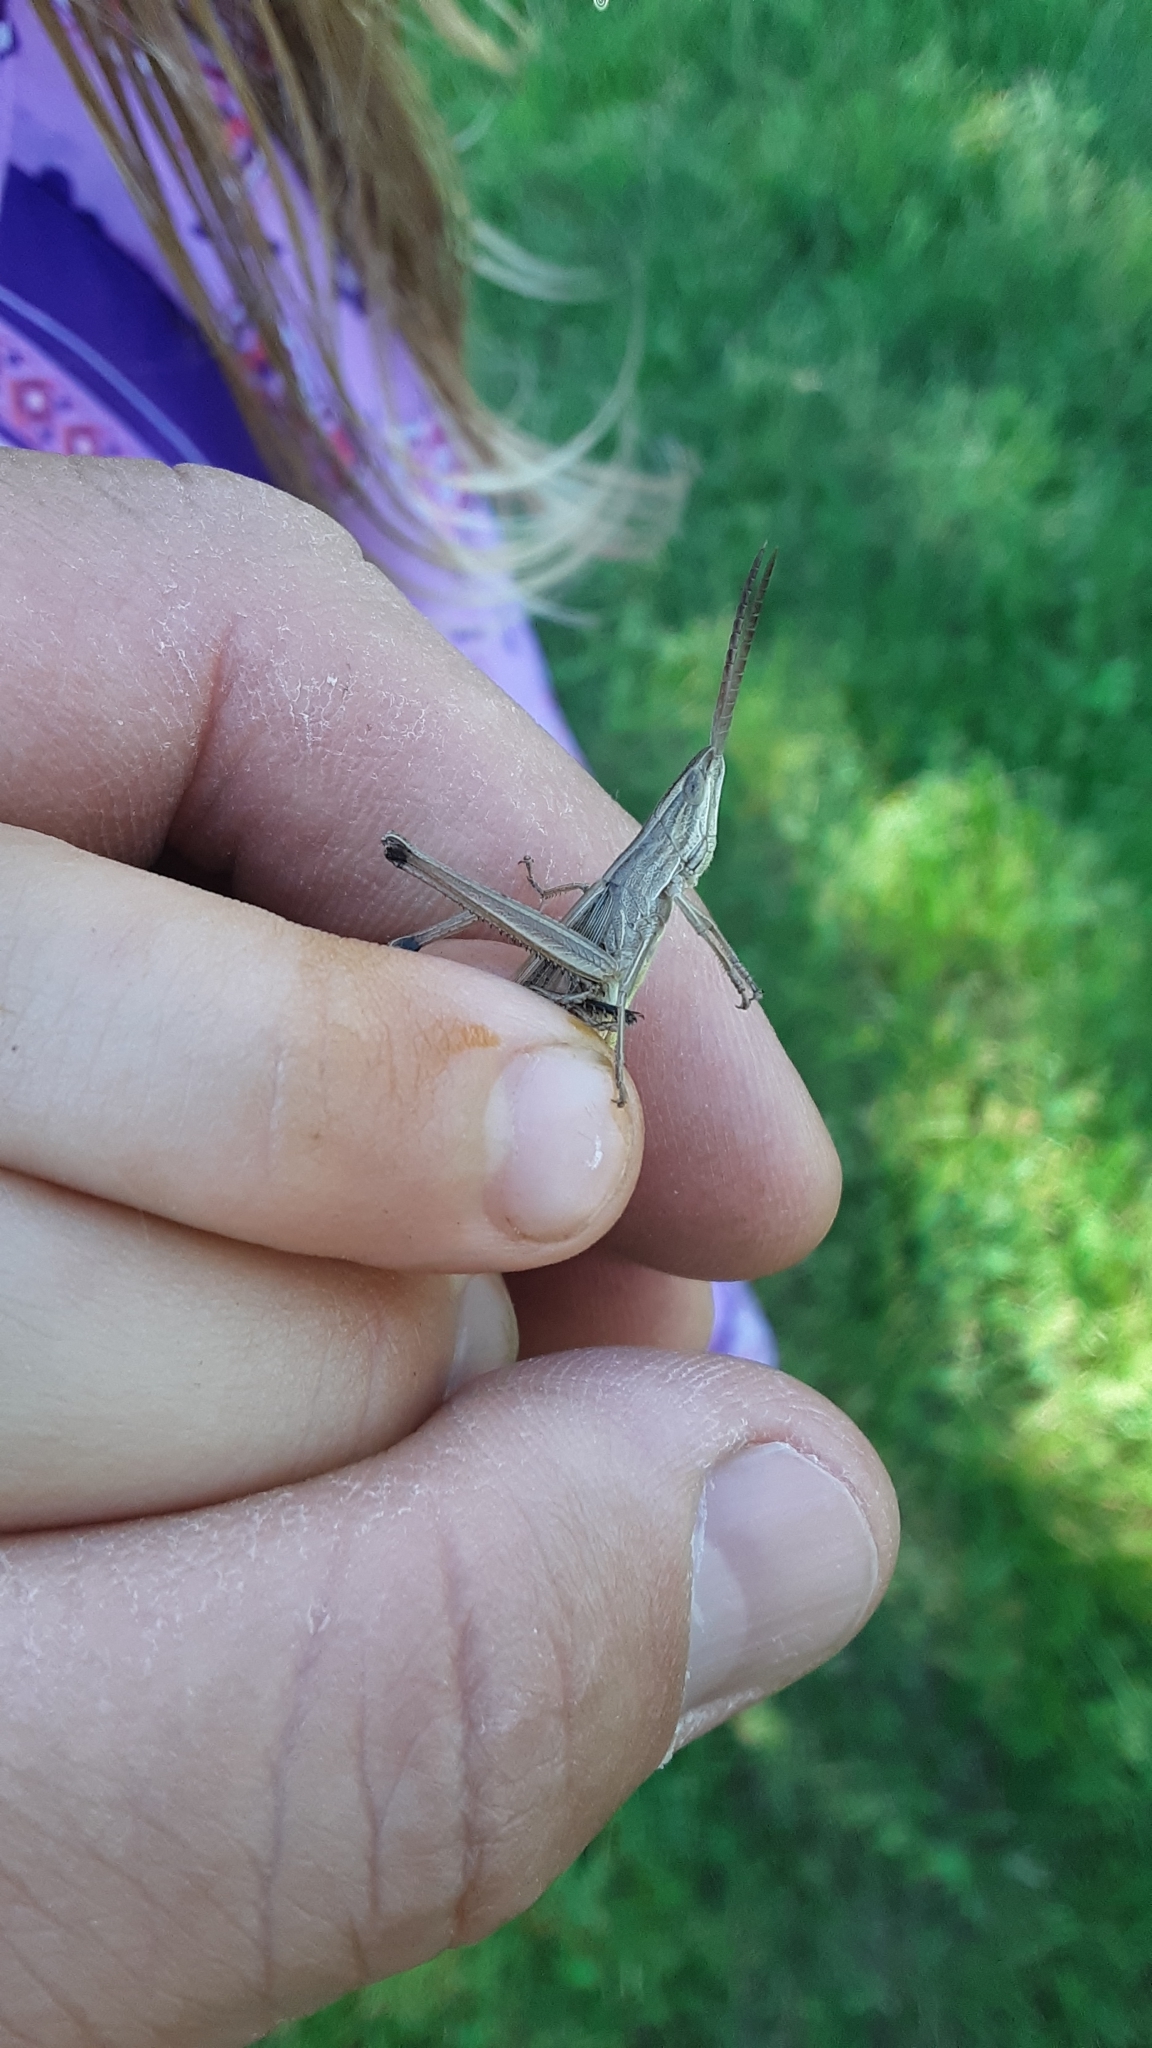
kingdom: Animalia
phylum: Arthropoda
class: Insecta
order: Orthoptera
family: Acrididae
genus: Pseudopomala
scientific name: Pseudopomala brachyptera
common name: Bunchgrass grasshopper
